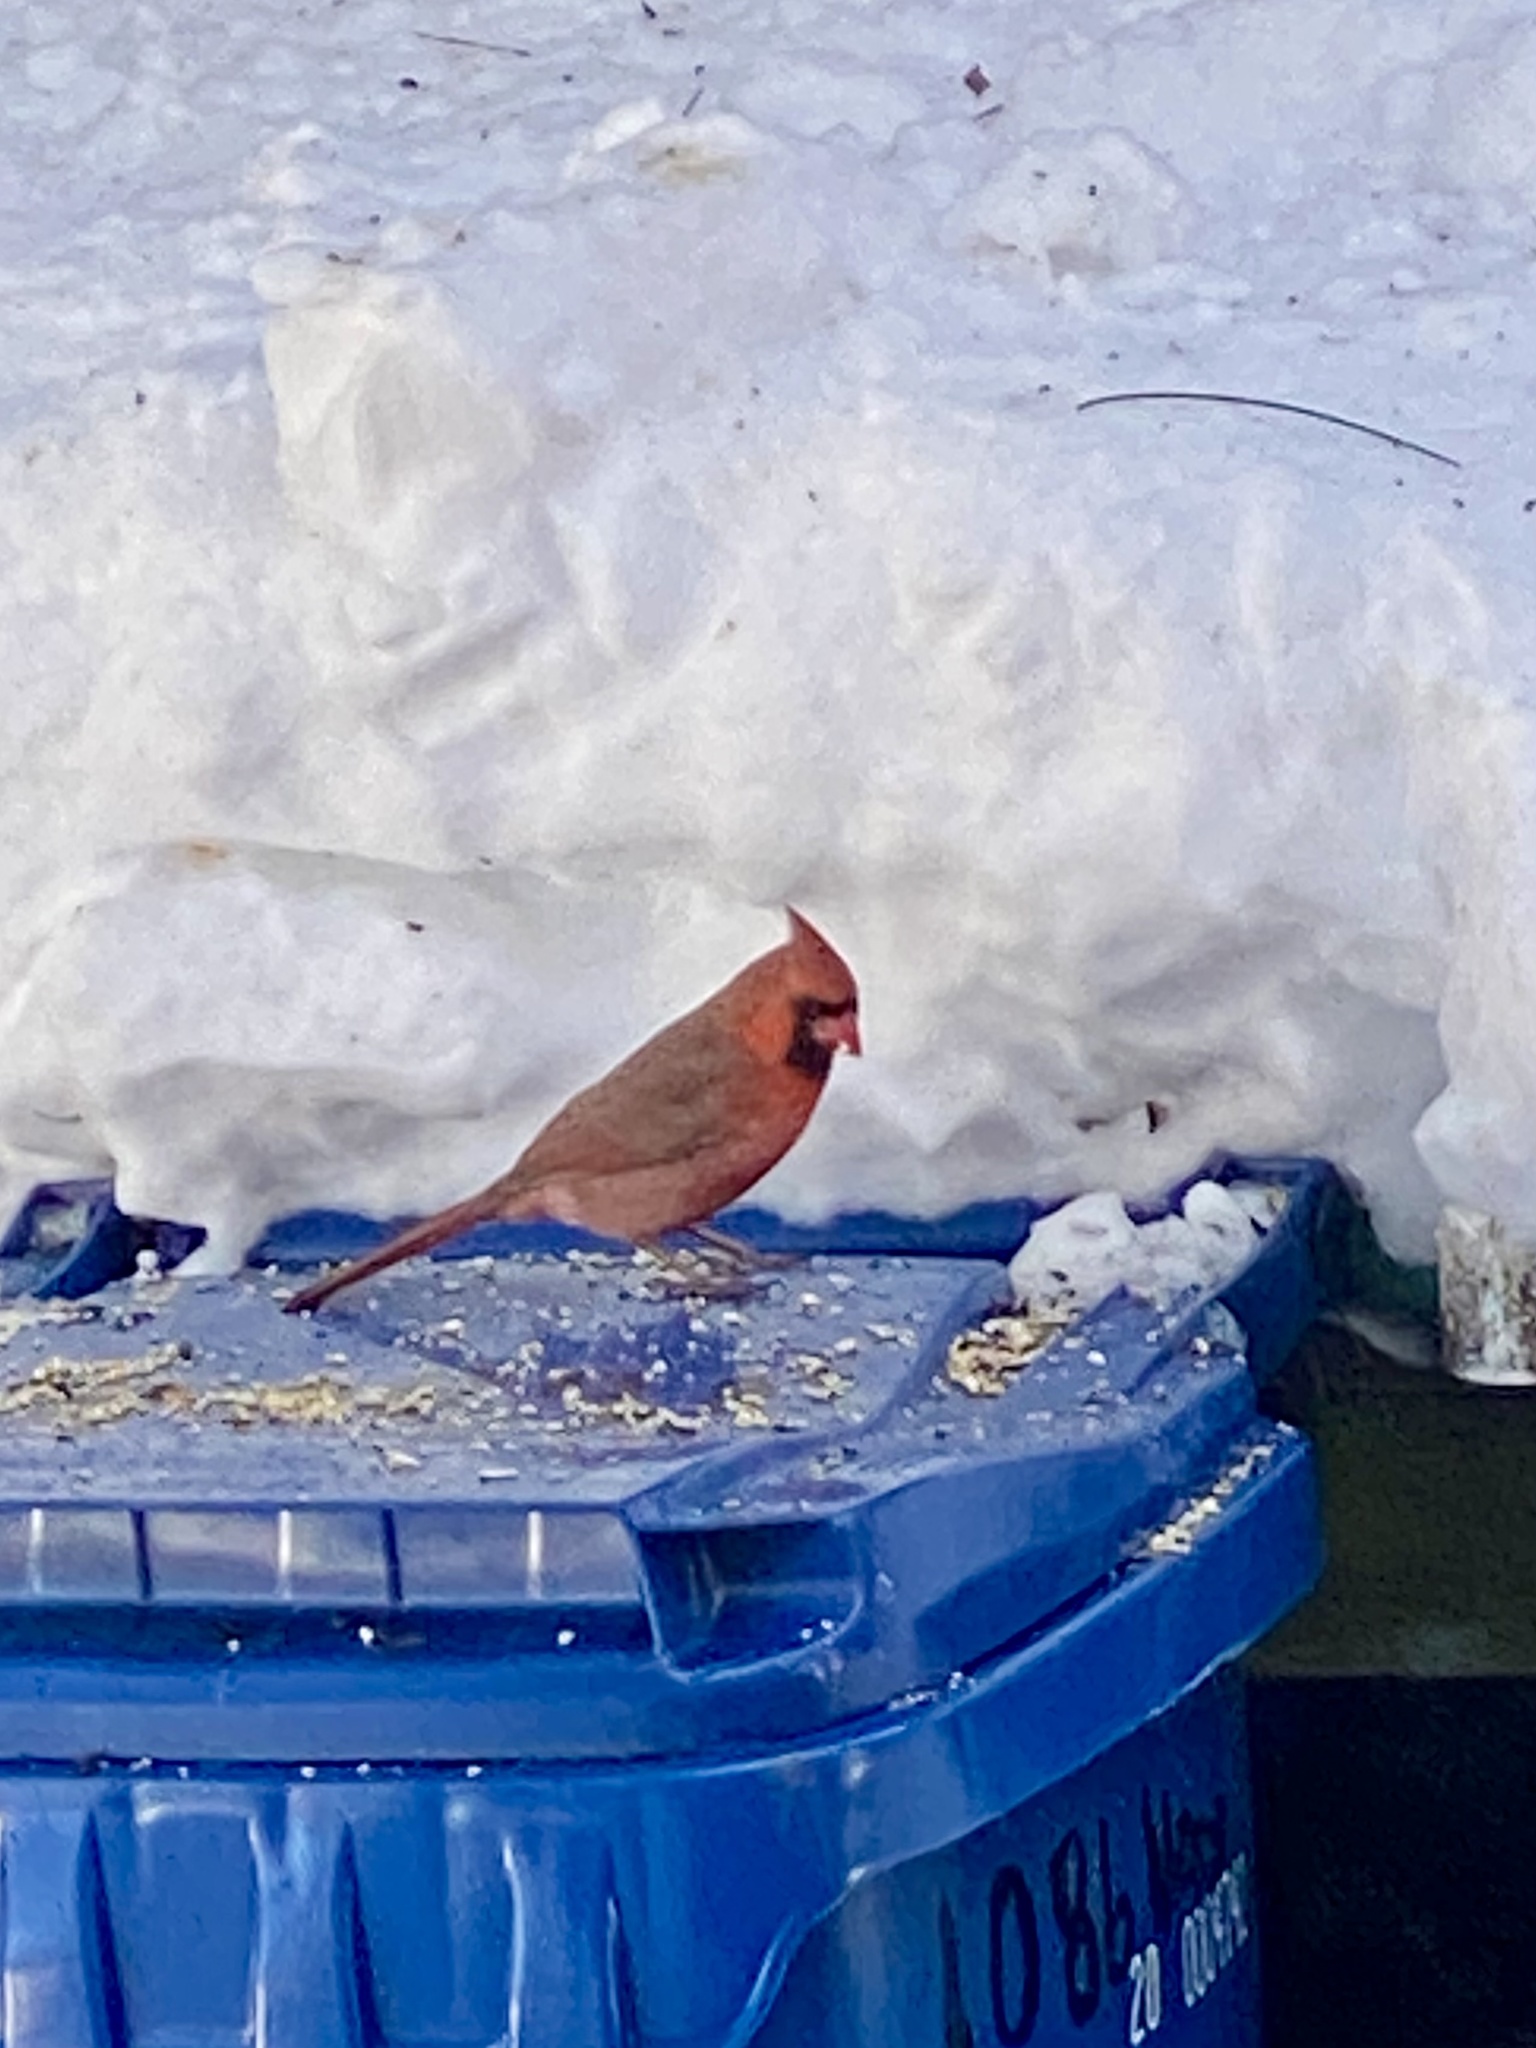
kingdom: Animalia
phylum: Chordata
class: Aves
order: Passeriformes
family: Cardinalidae
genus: Cardinalis
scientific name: Cardinalis cardinalis
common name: Northern cardinal
